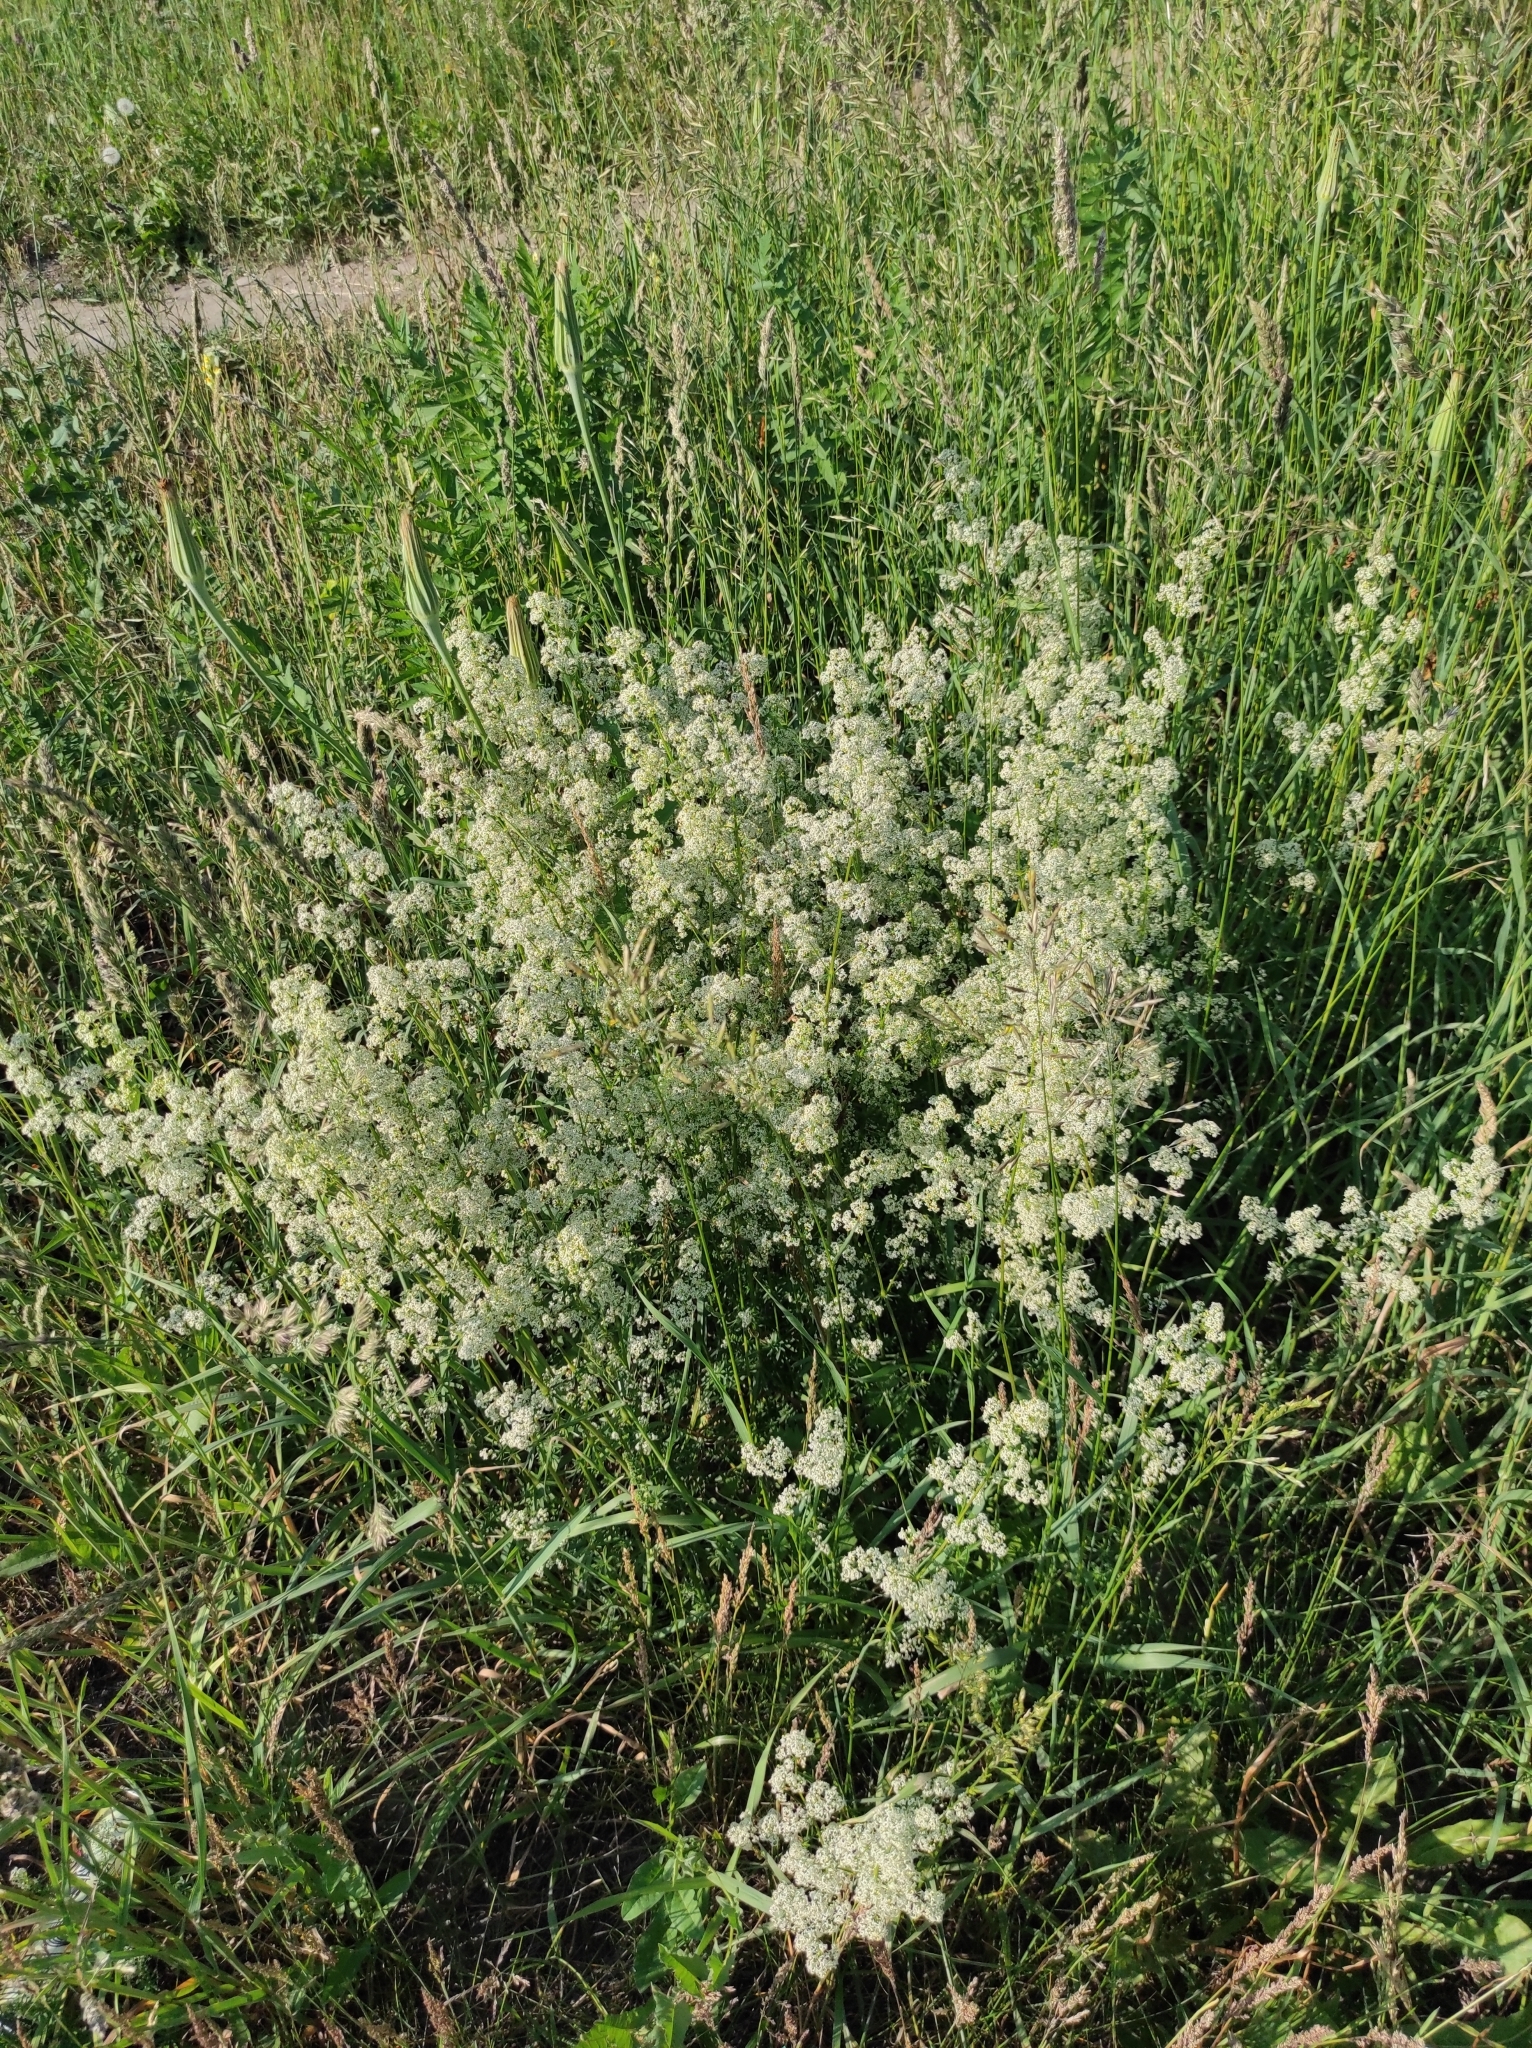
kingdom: Plantae
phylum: Tracheophyta
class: Magnoliopsida
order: Gentianales
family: Rubiaceae
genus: Galium
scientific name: Galium mollugo
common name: Hedge bedstraw
